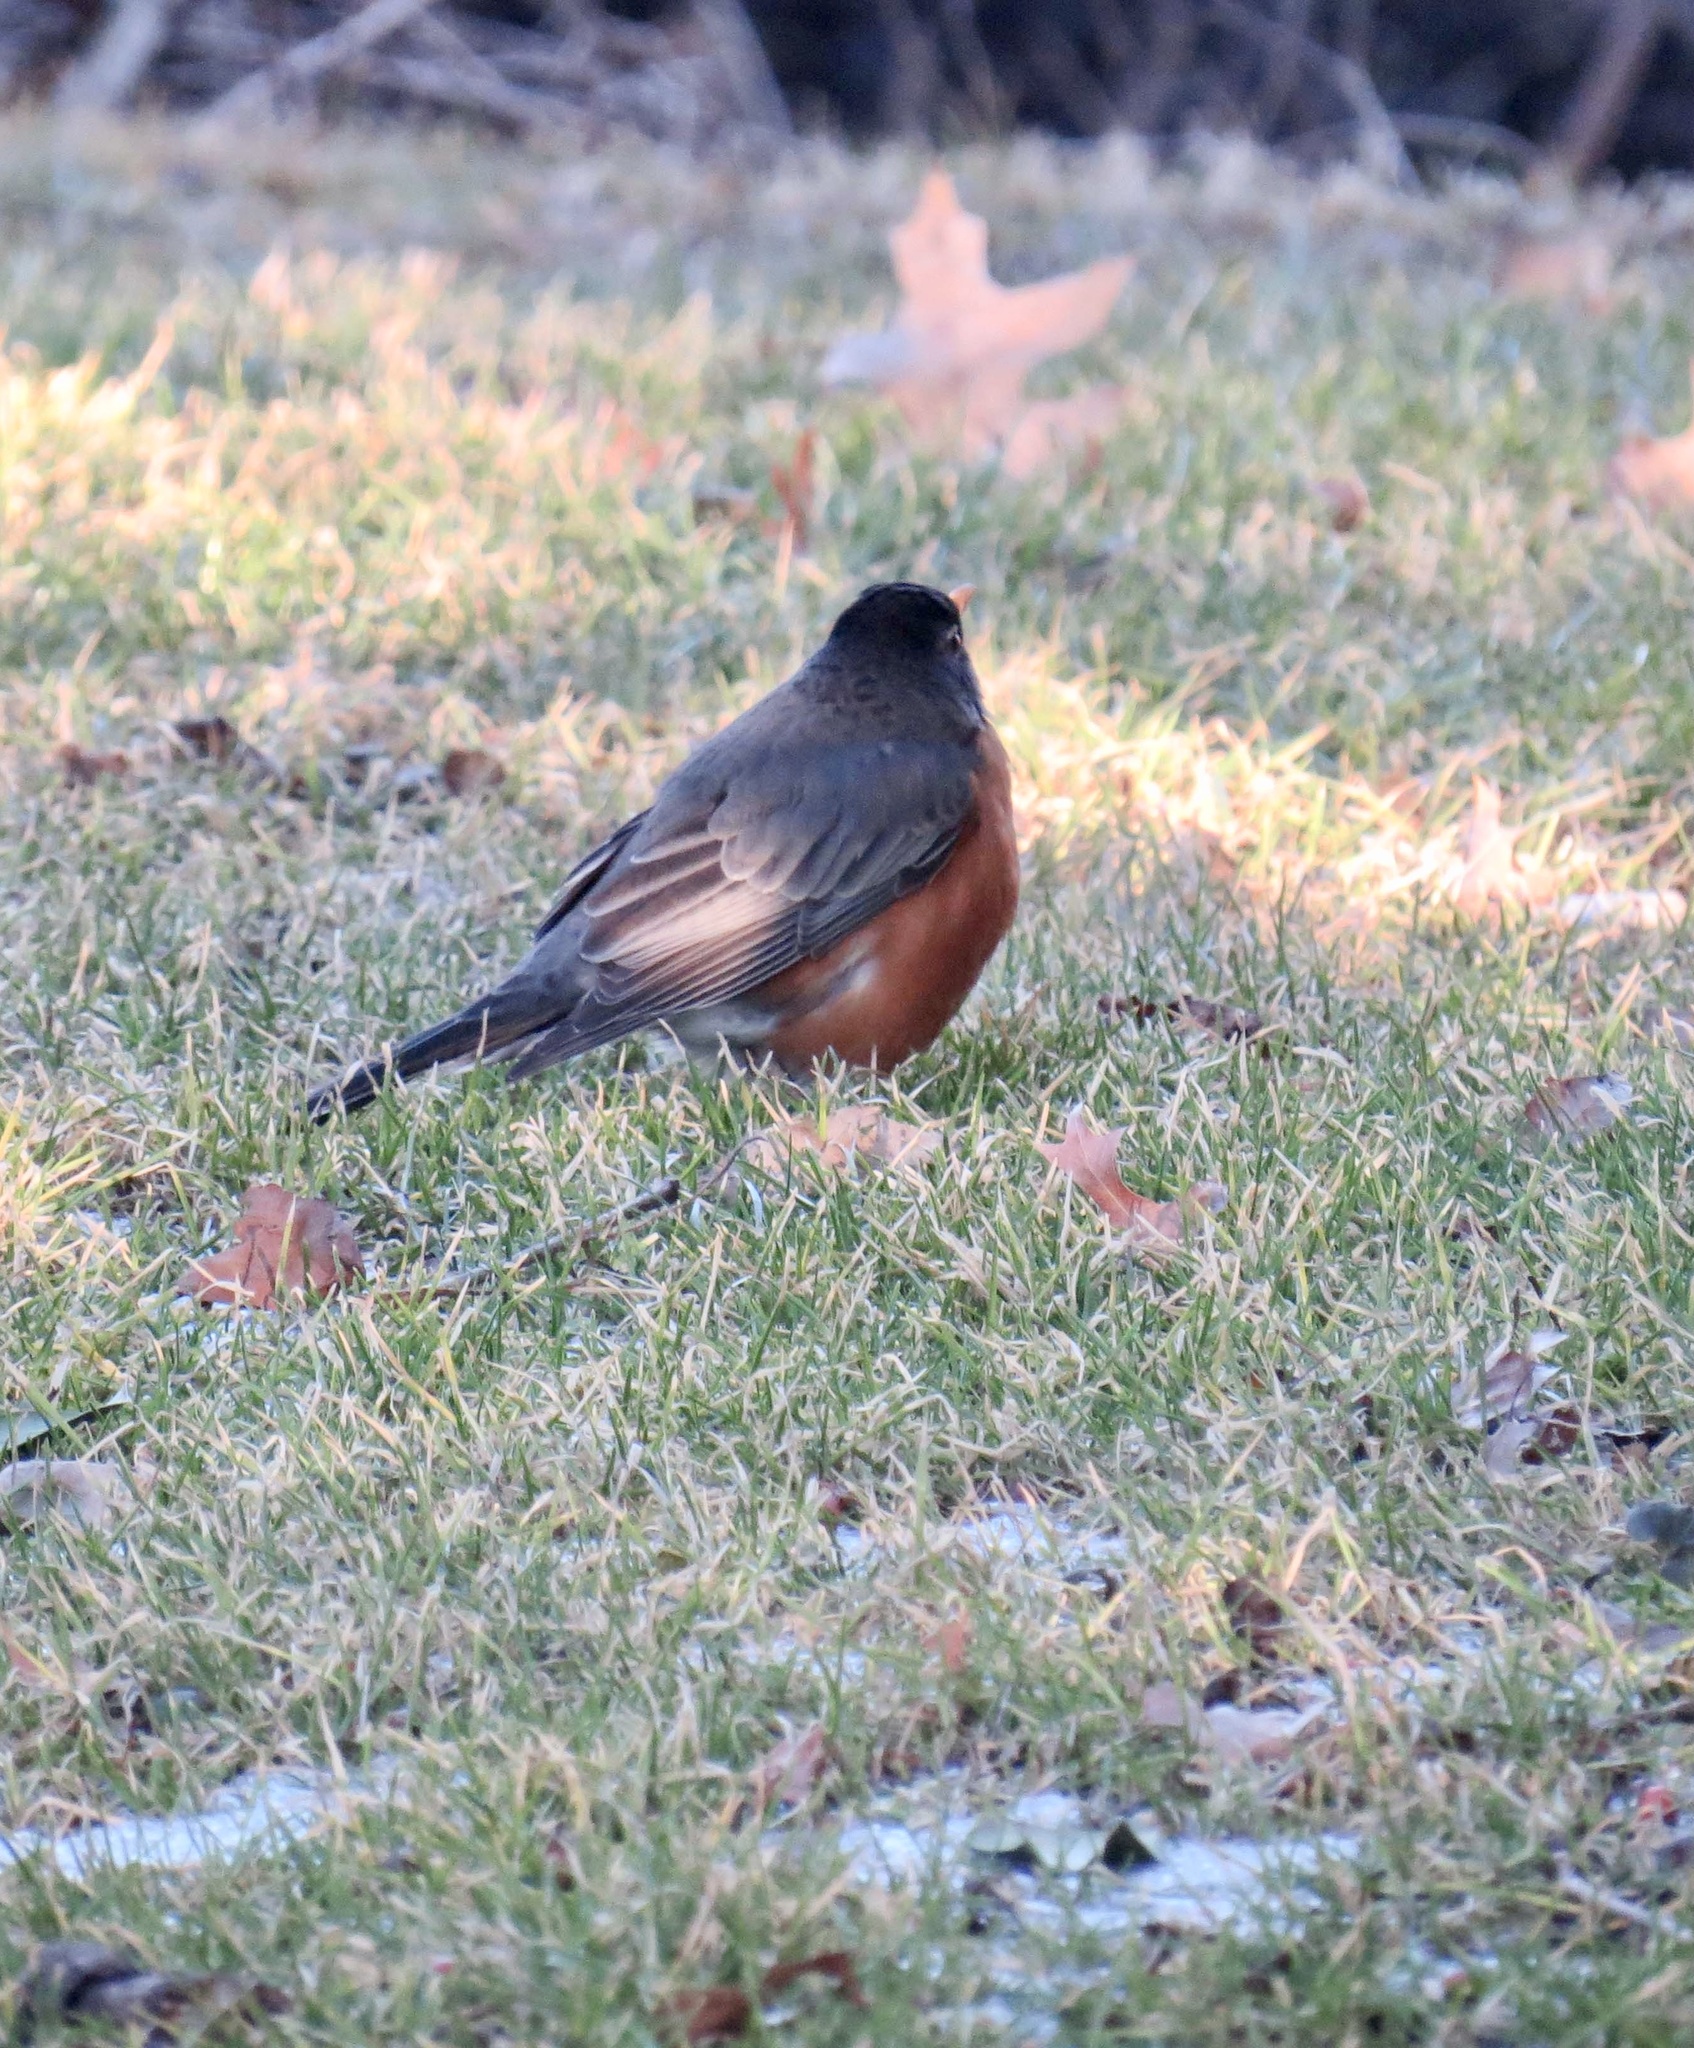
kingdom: Animalia
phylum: Chordata
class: Aves
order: Passeriformes
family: Turdidae
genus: Turdus
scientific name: Turdus migratorius
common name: American robin
